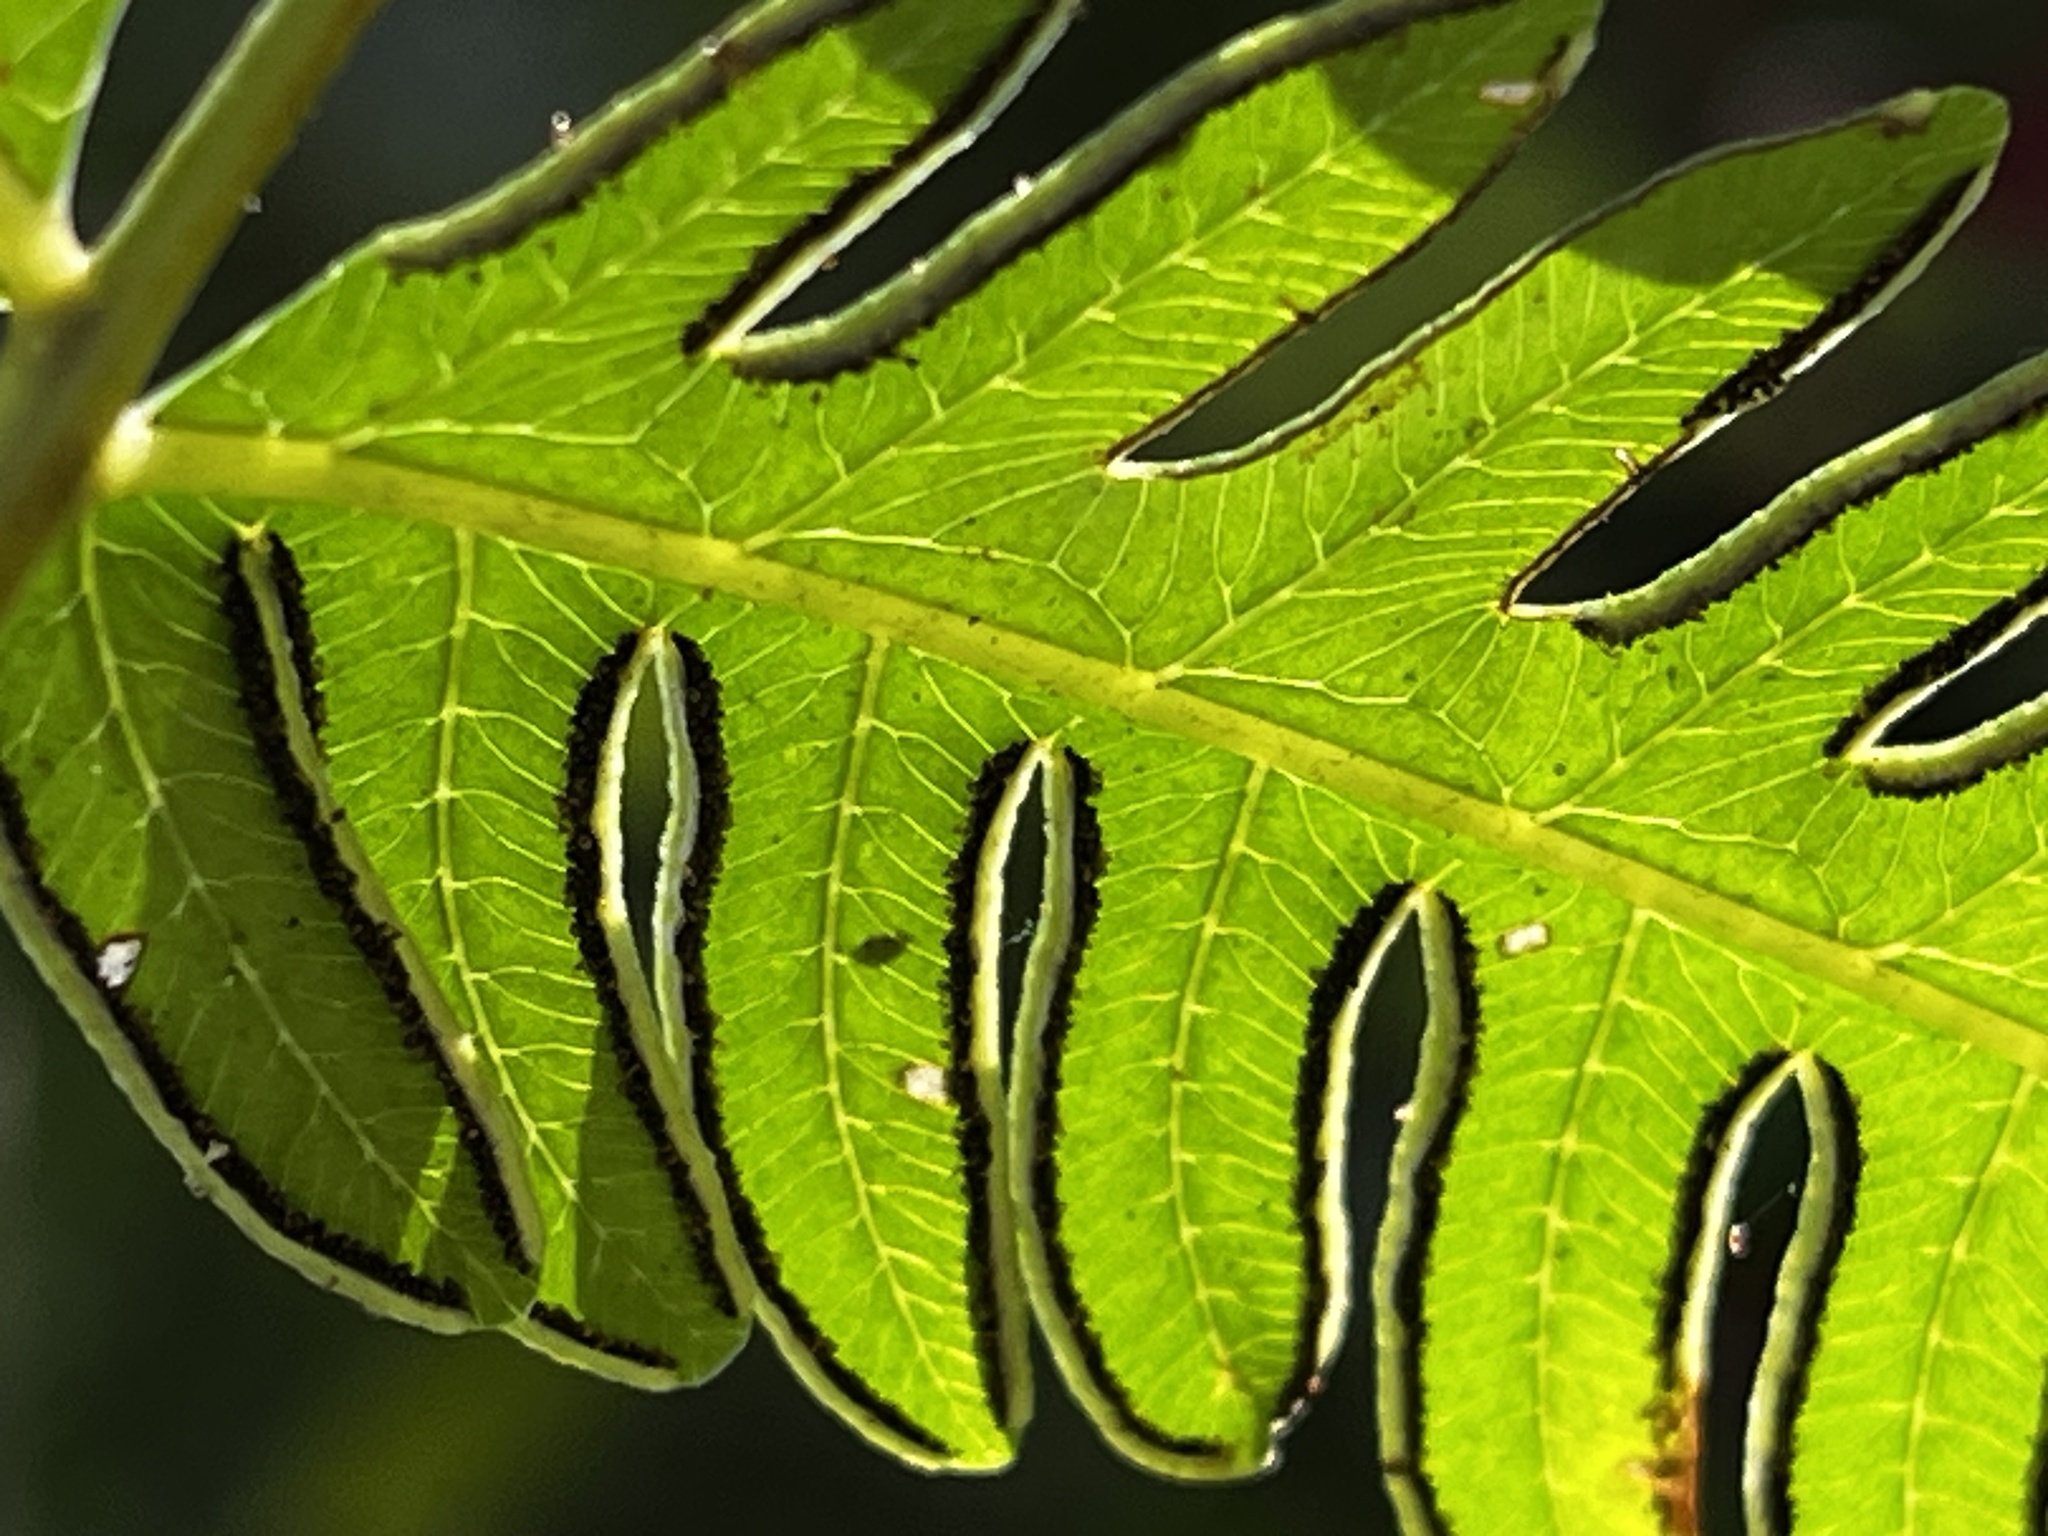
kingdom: Plantae
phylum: Tracheophyta
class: Polypodiopsida
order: Polypodiales
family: Pteridaceae
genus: Pteris
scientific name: Pteris biaurita
